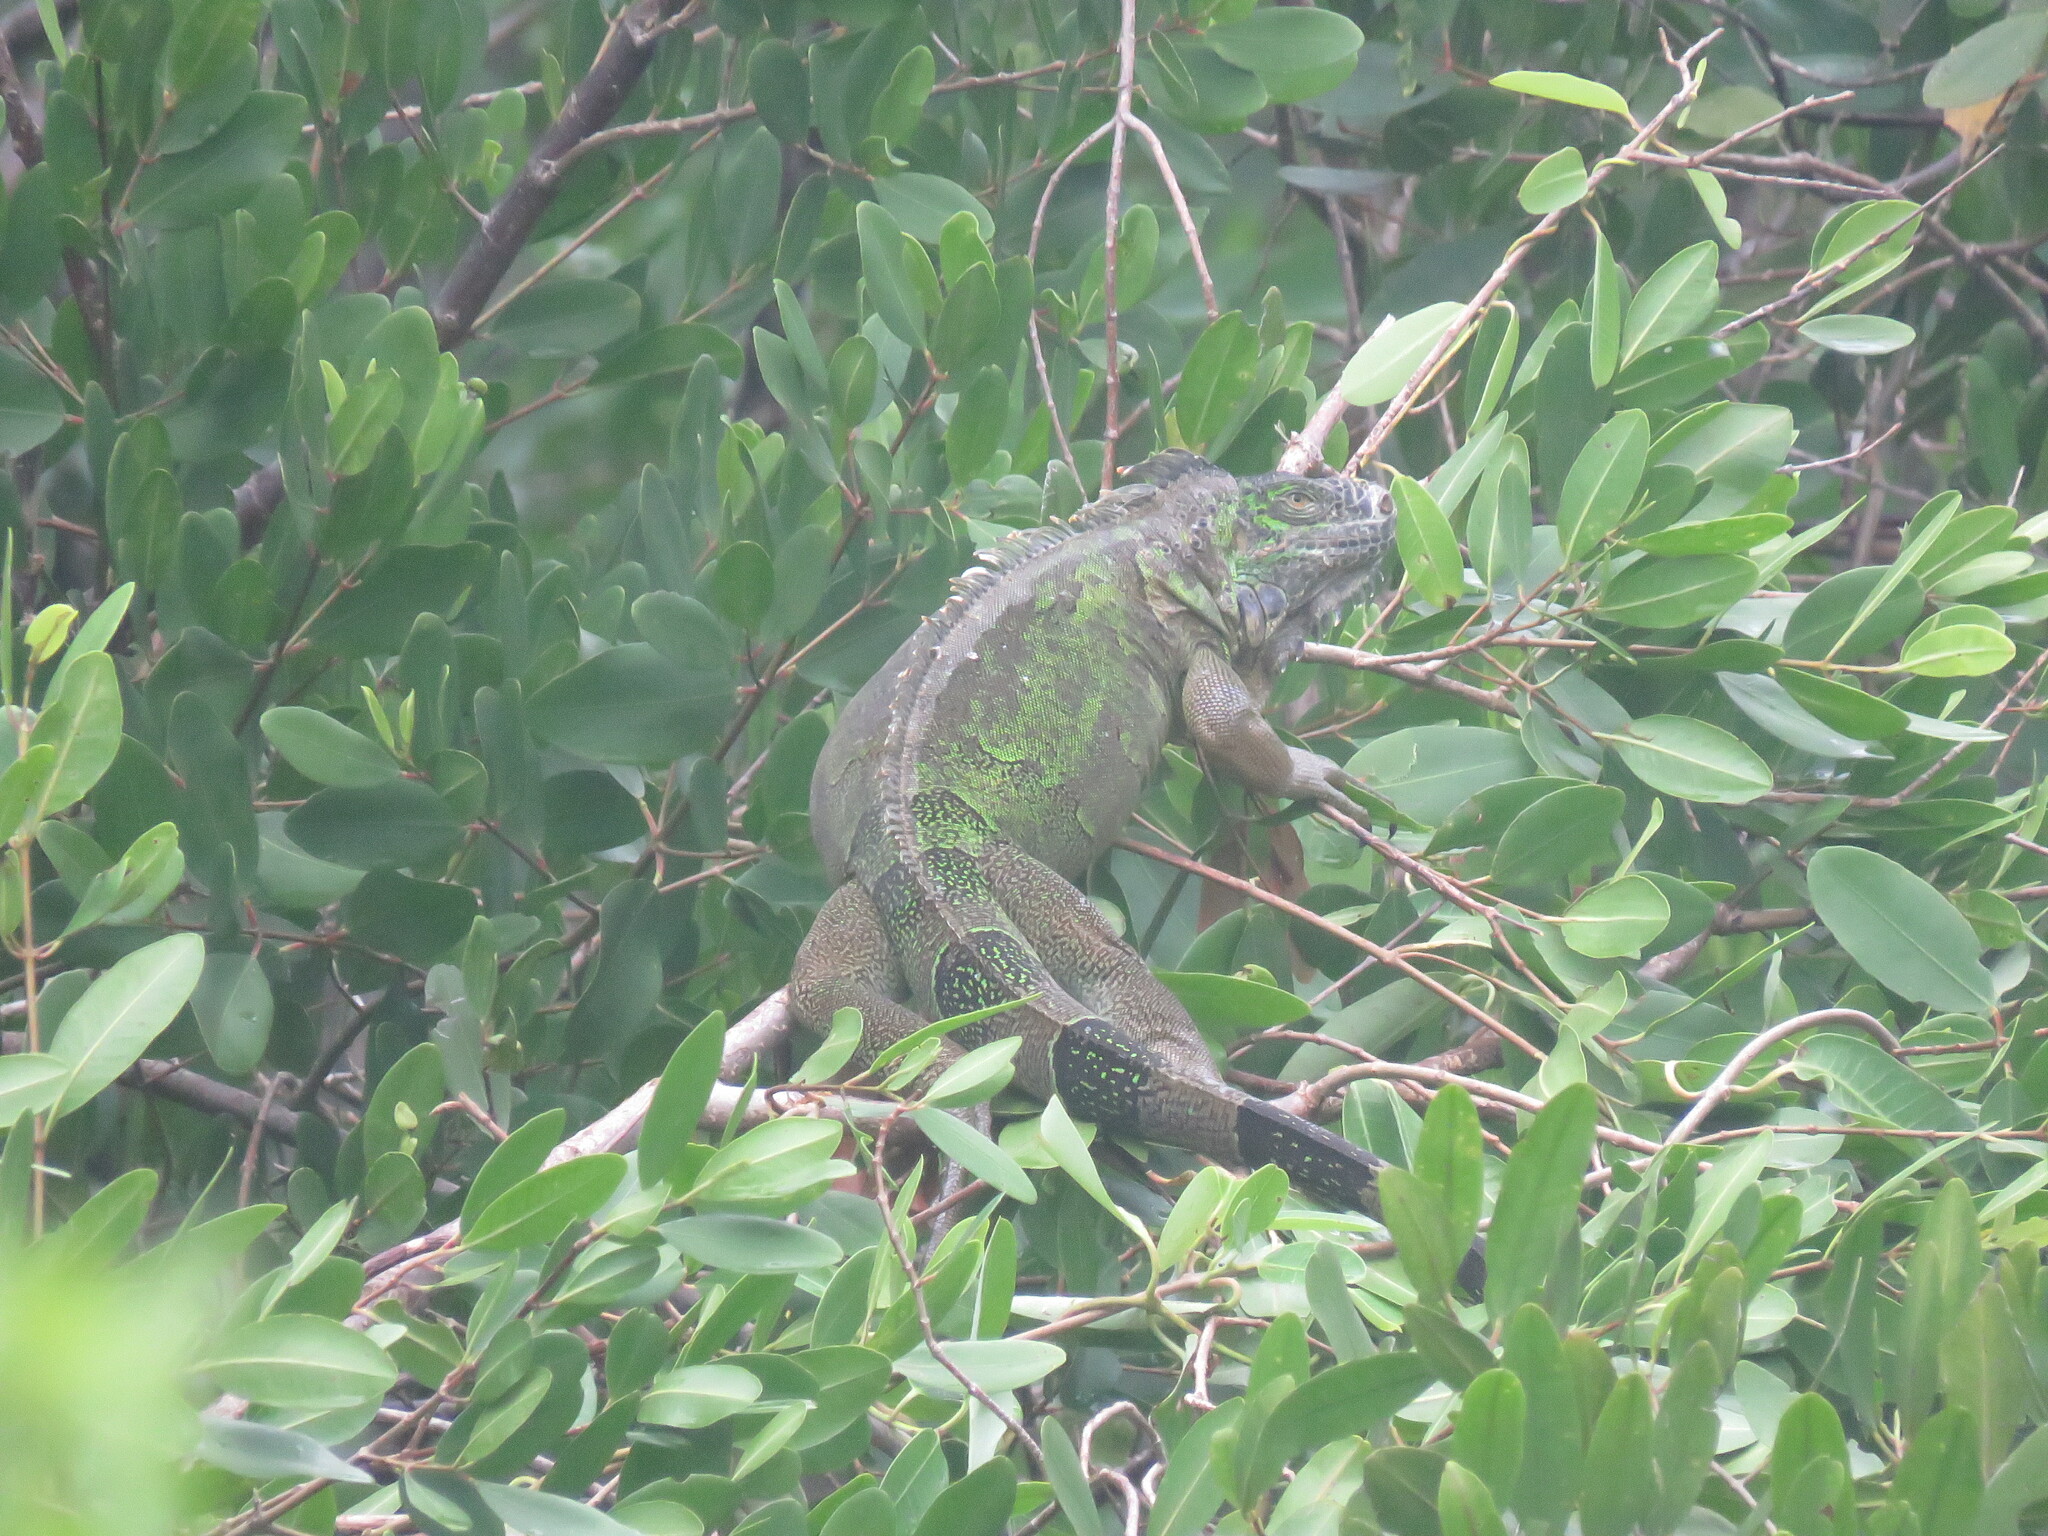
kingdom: Animalia
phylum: Chordata
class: Squamata
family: Iguanidae
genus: Iguana
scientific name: Iguana iguana
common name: Green iguana
